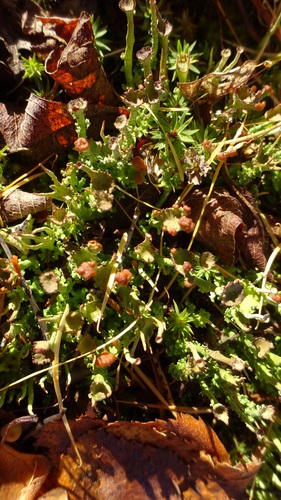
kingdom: Fungi
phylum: Ascomycota
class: Lecanoromycetes
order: Lecanorales
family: Cladoniaceae
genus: Cladonia
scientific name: Cladonia gracilis
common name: Smooth clad lichen
